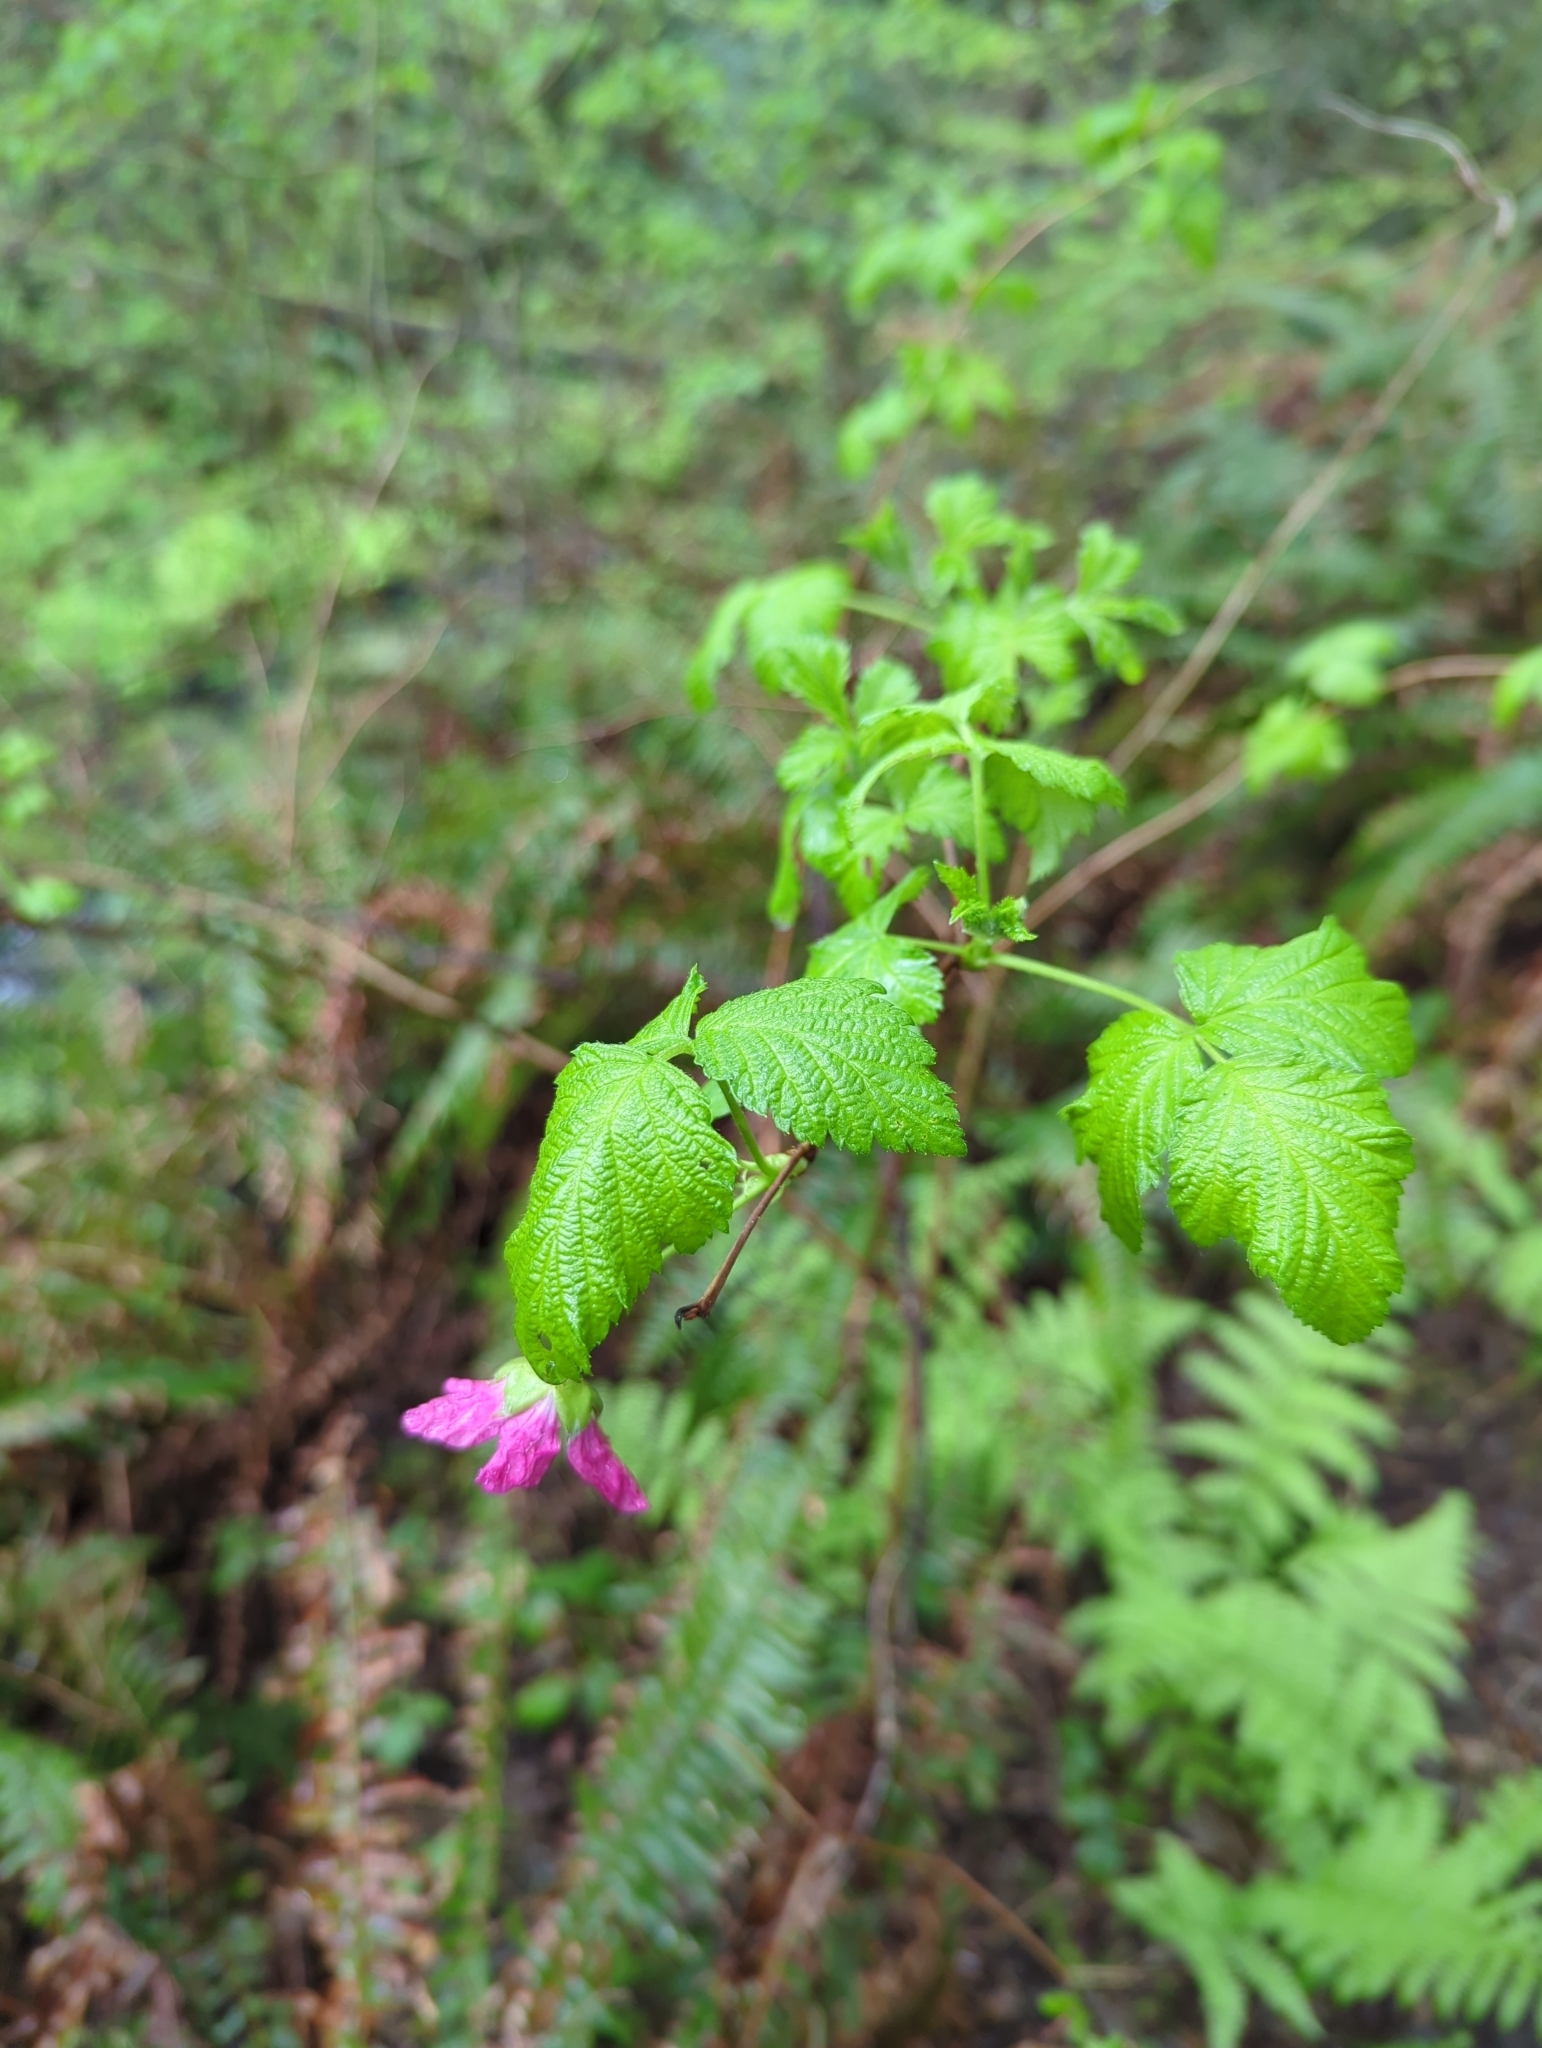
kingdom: Plantae
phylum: Tracheophyta
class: Magnoliopsida
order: Rosales
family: Rosaceae
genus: Rubus
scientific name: Rubus spectabilis
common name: Salmonberry
